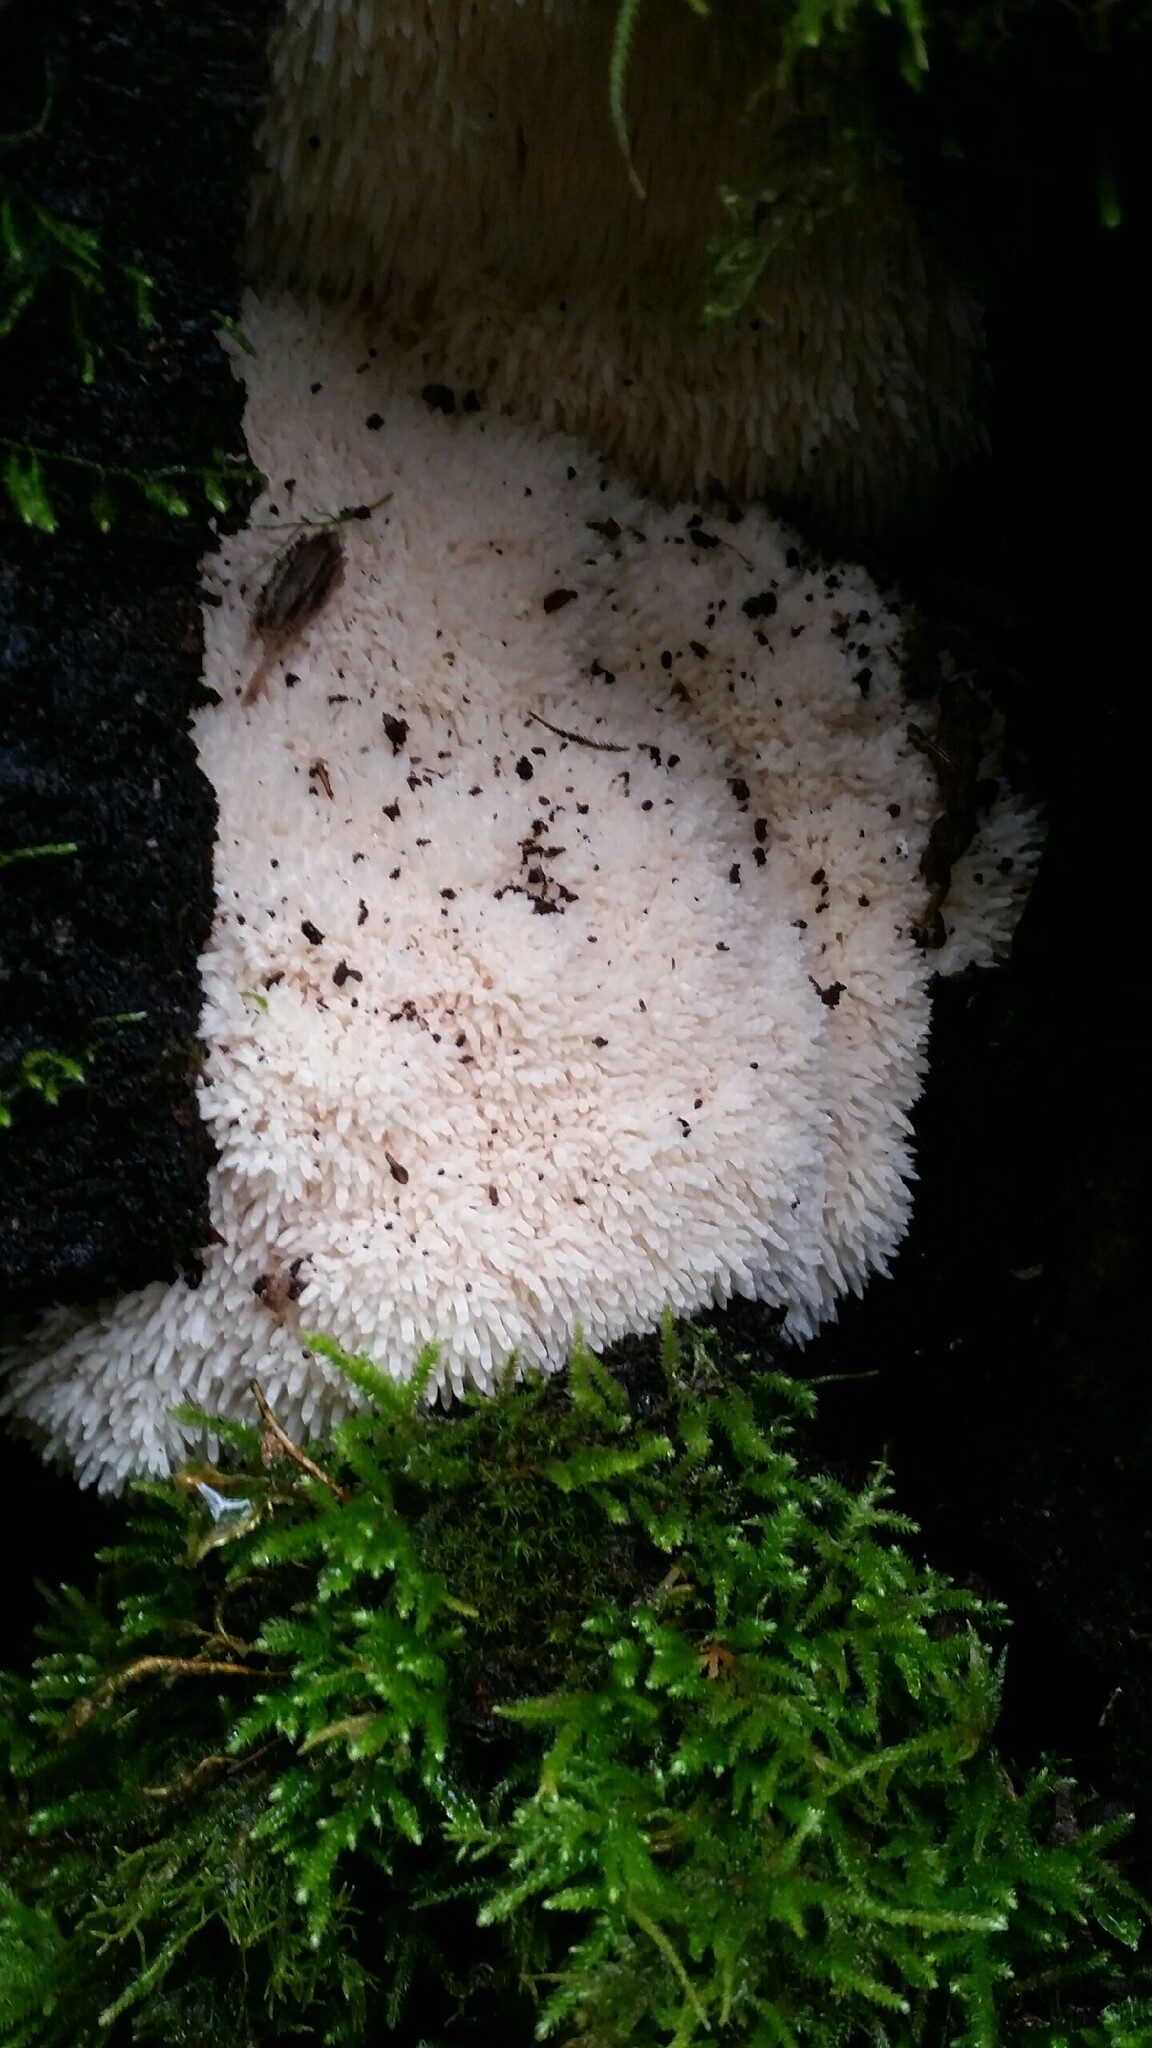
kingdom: Fungi
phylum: Basidiomycota
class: Agaricomycetes
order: Russulales
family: Hericiaceae
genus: Hericium
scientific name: Hericium erinaceus
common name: Bearded tooth
